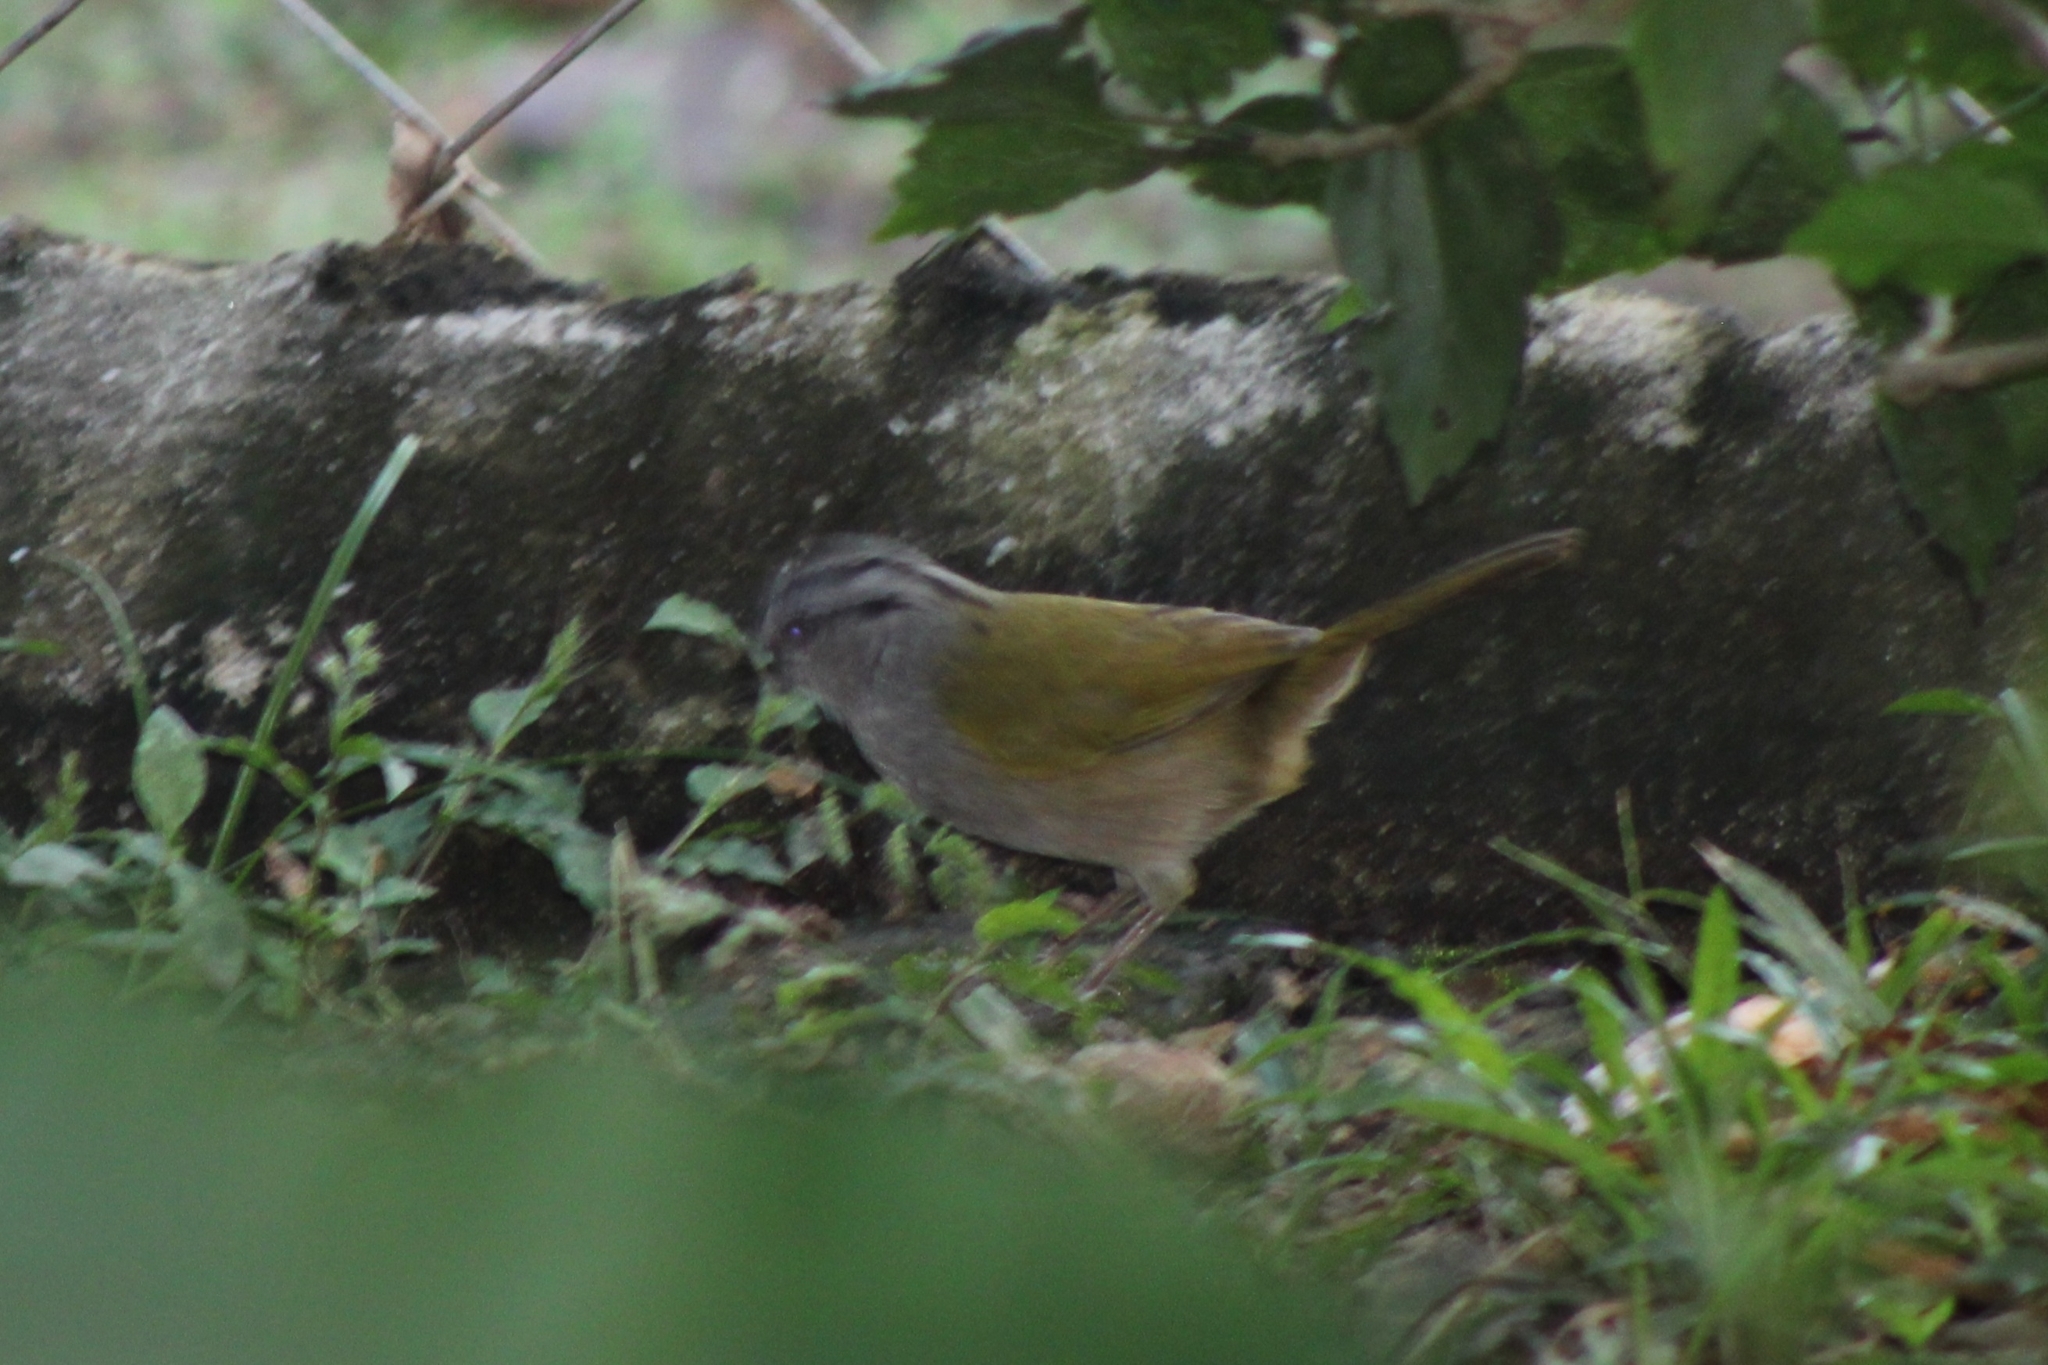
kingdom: Animalia
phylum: Chordata
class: Aves
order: Passeriformes
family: Passerellidae
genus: Arremonops
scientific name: Arremonops conirostris
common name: Black-striped sparrow
